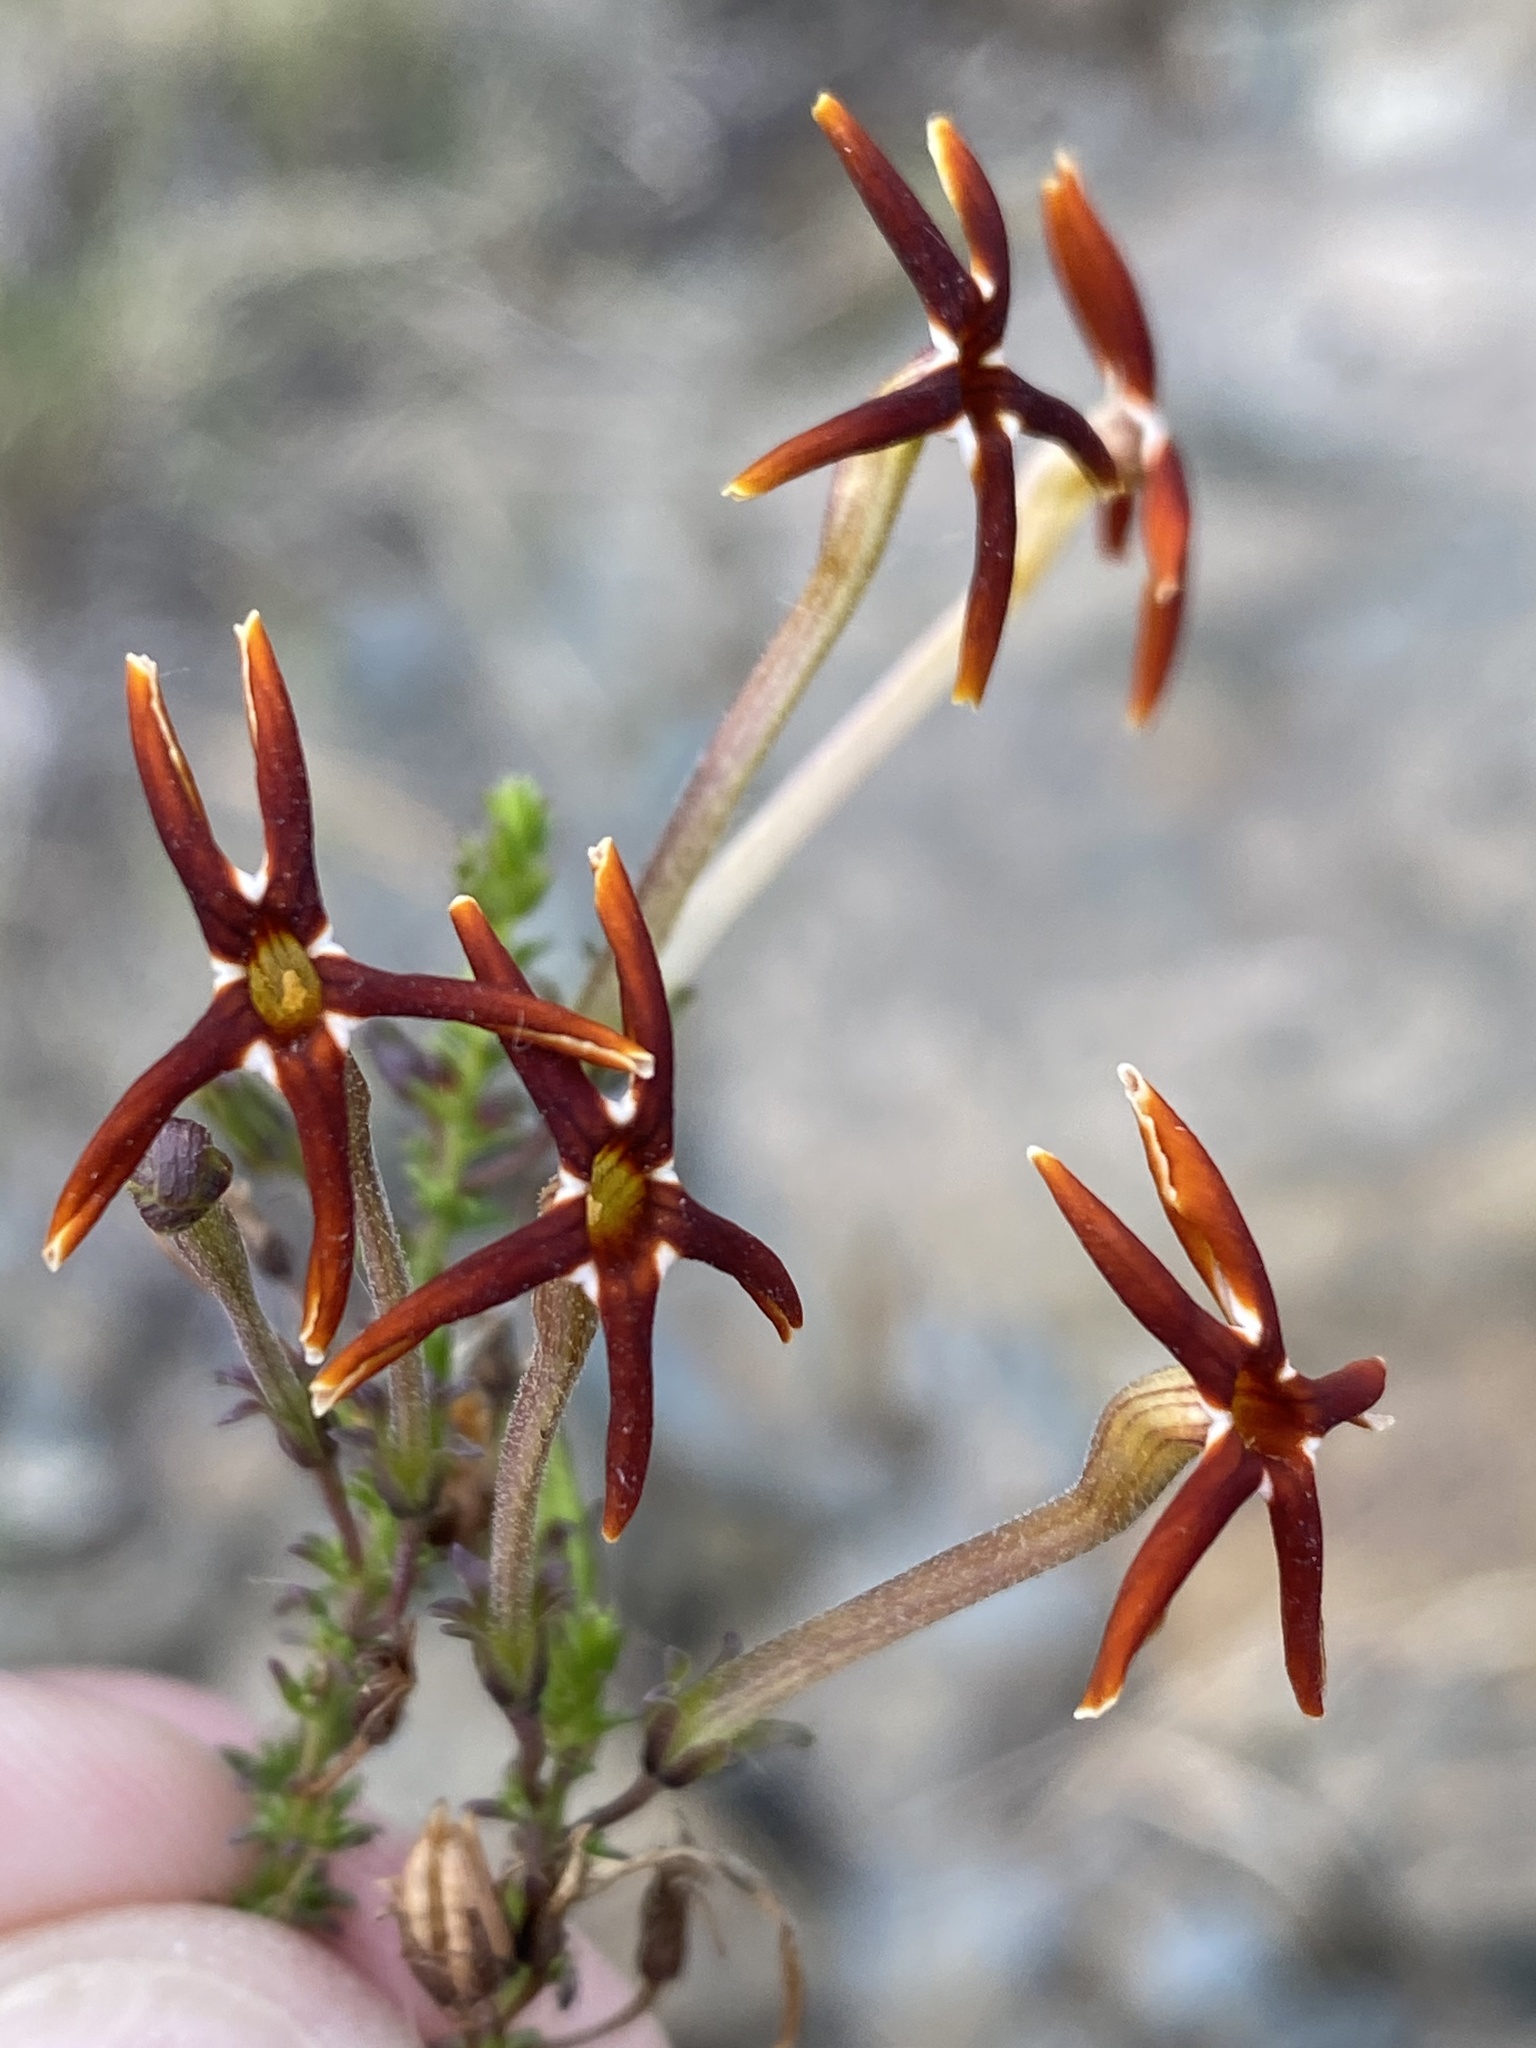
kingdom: Plantae
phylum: Tracheophyta
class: Magnoliopsida
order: Lamiales
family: Scrophulariaceae
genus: Jamesbrittenia
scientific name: Jamesbrittenia atropurpurea
